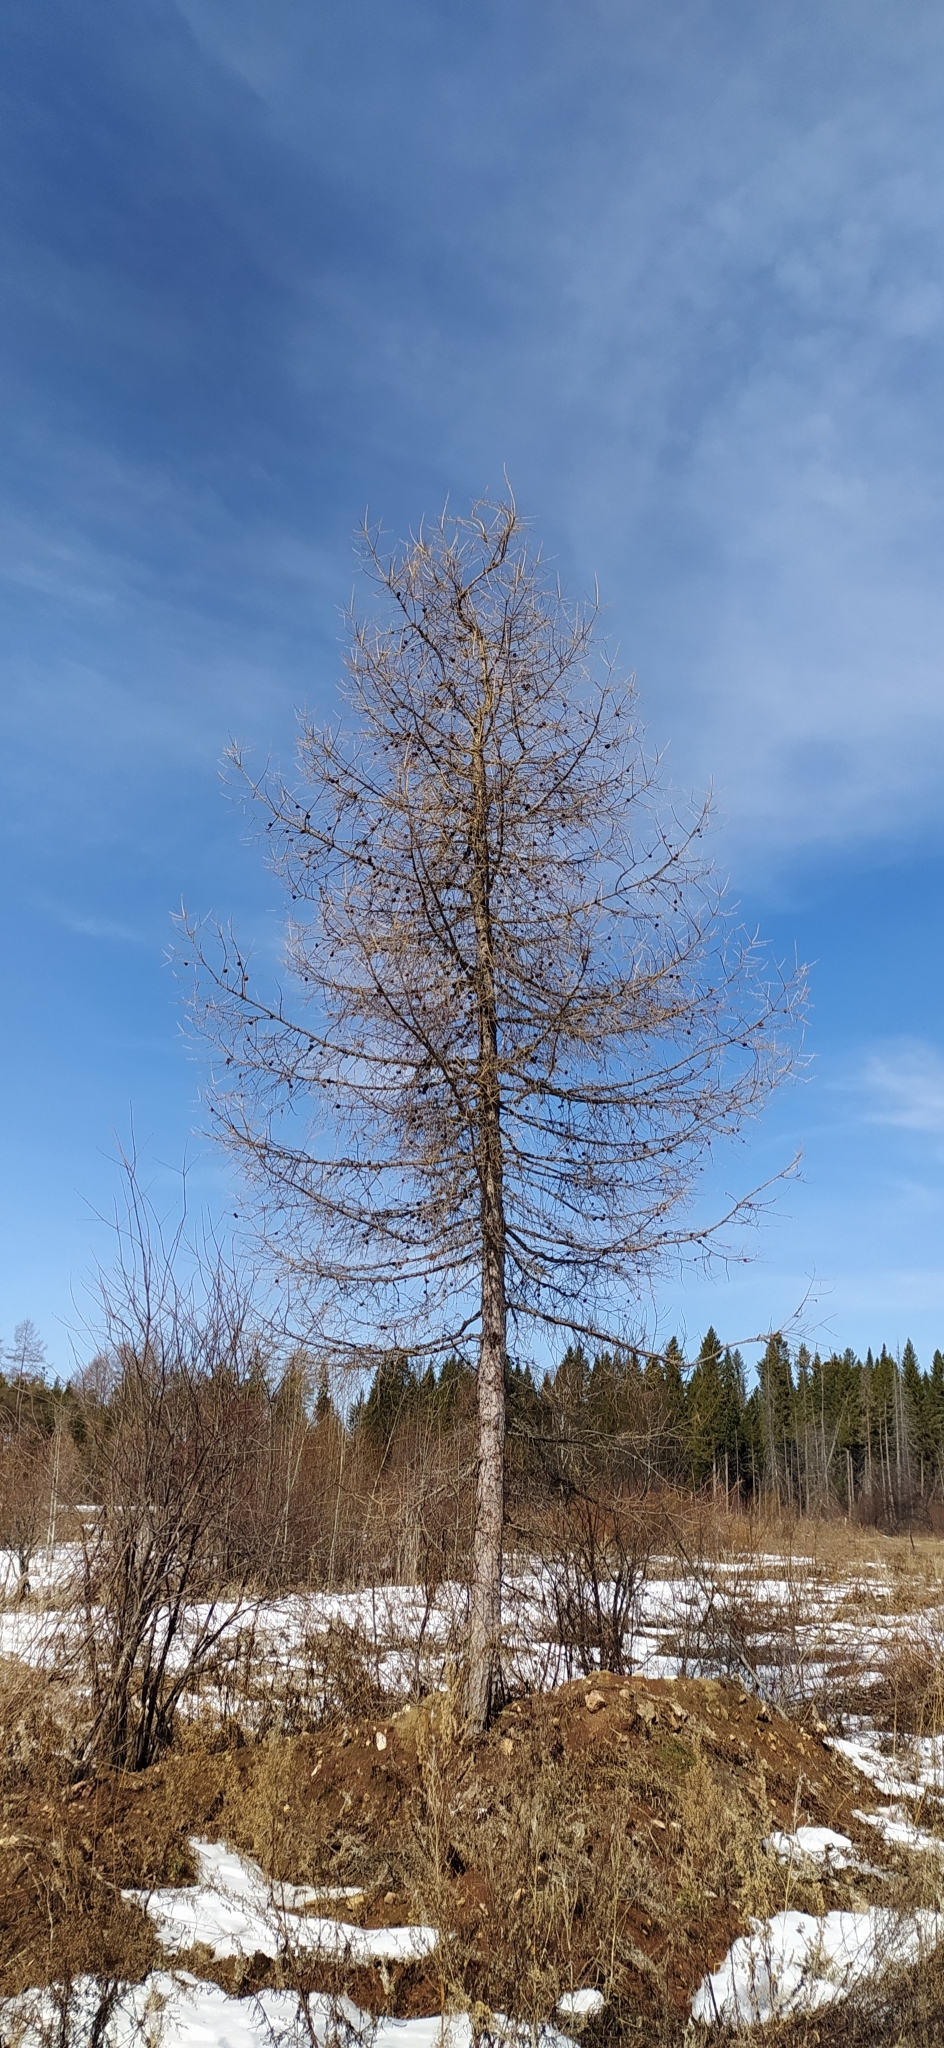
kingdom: Plantae
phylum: Tracheophyta
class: Pinopsida
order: Pinales
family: Pinaceae
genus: Larix
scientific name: Larix sibirica
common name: Siberian larch
